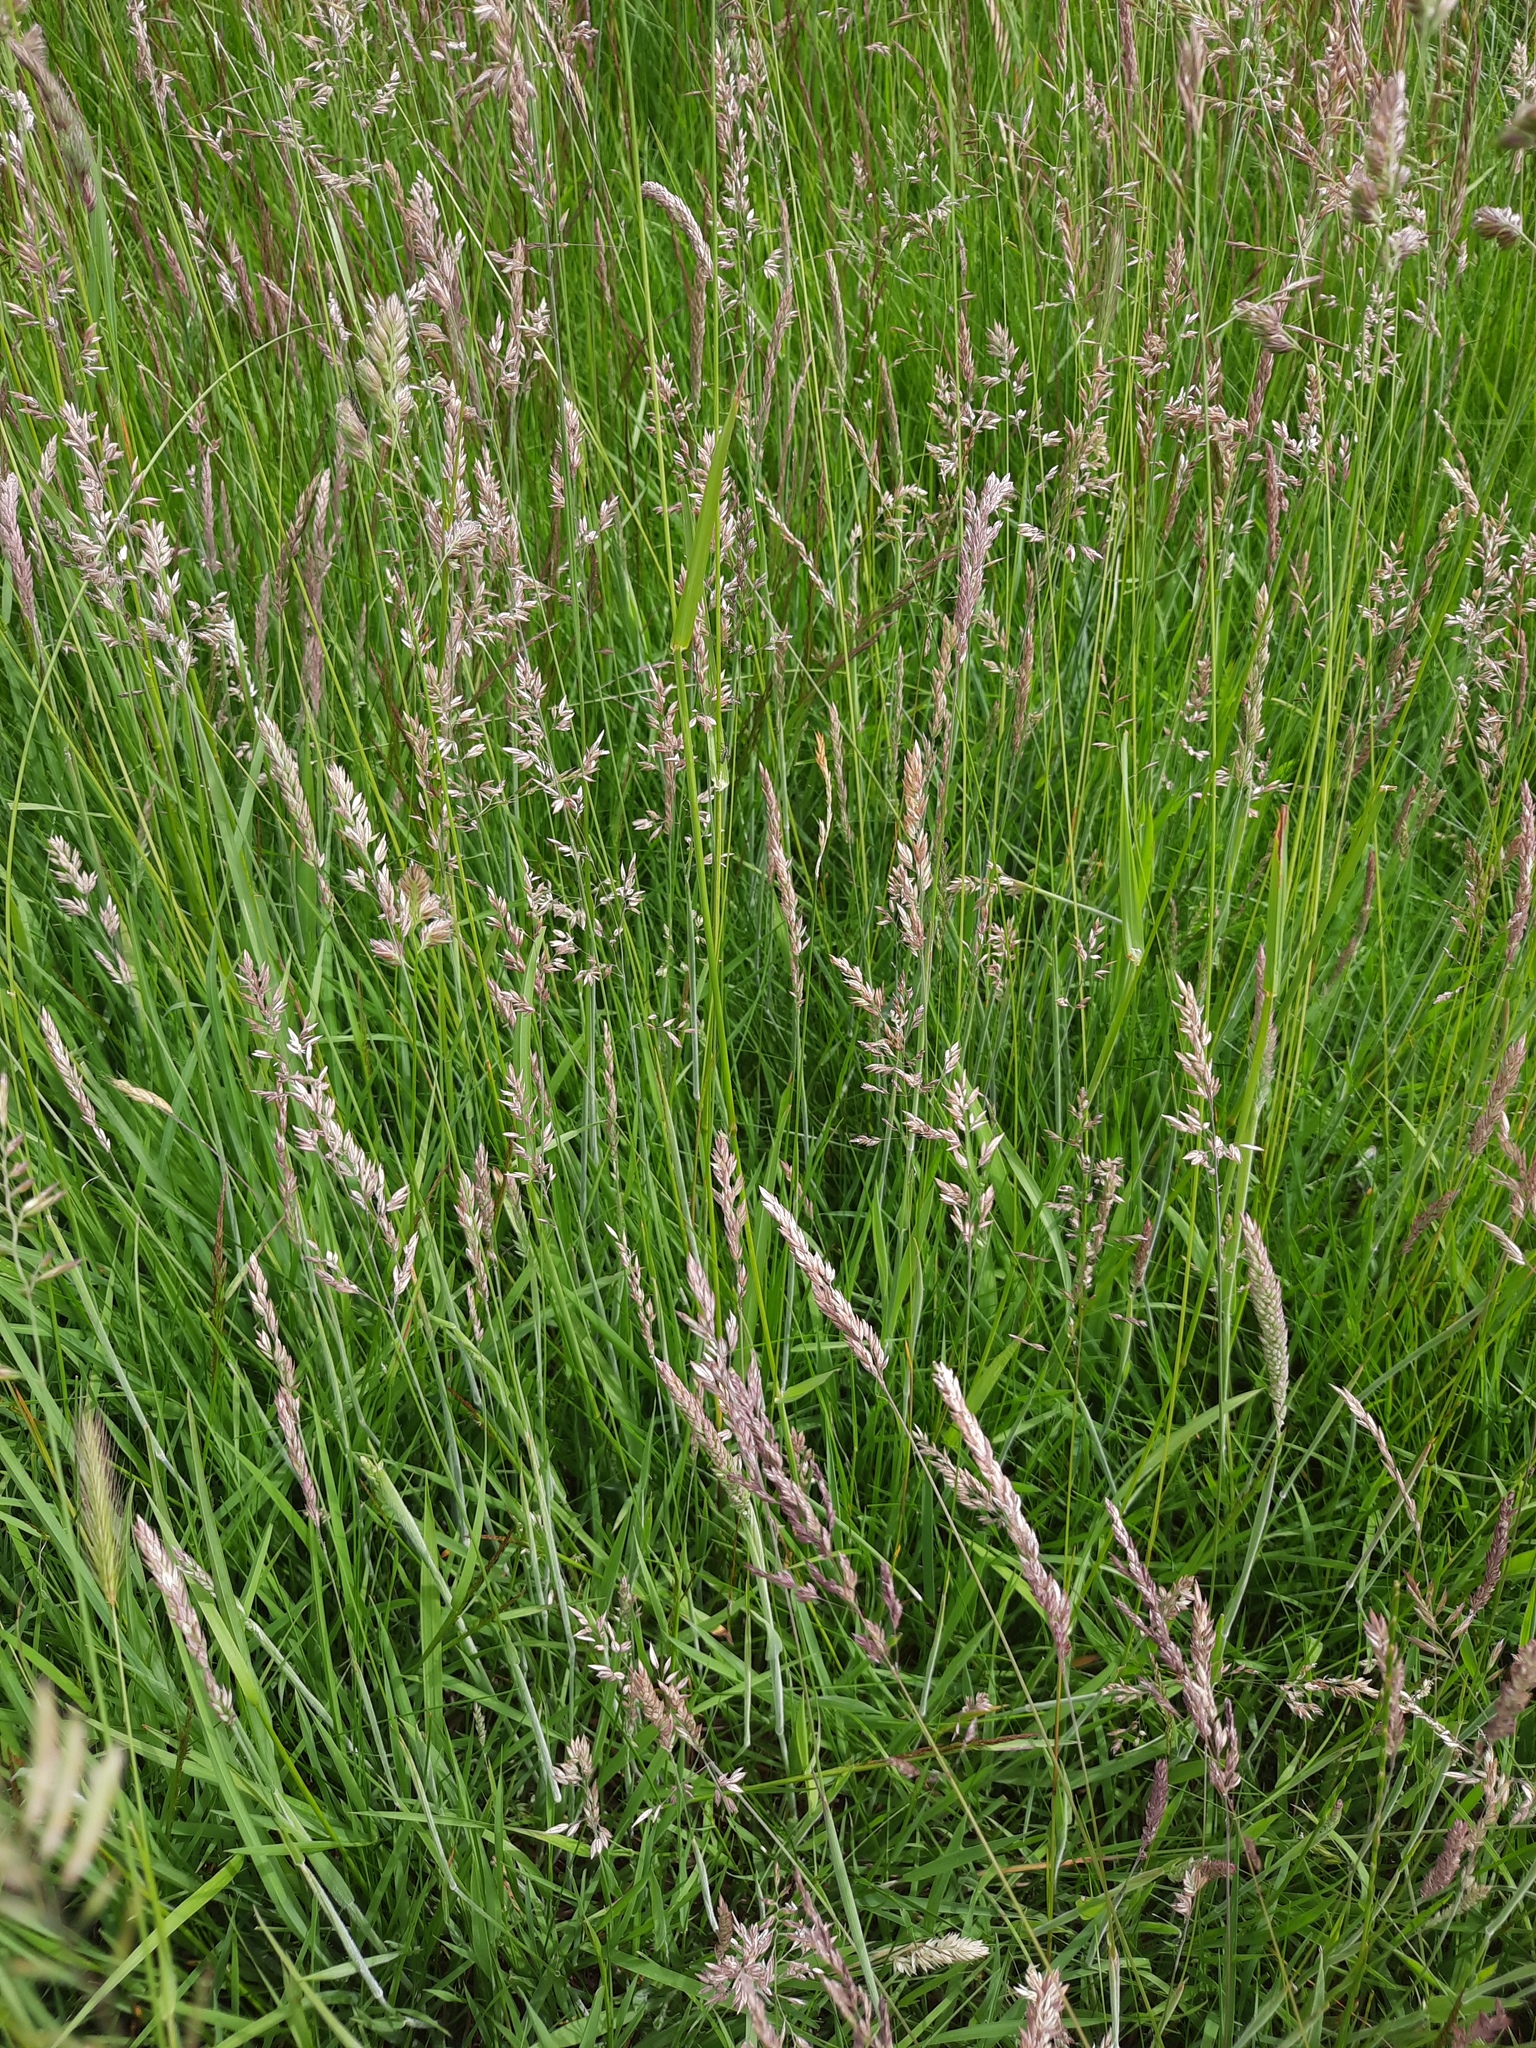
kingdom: Plantae
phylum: Tracheophyta
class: Liliopsida
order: Poales
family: Poaceae
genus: Holcus
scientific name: Holcus lanatus
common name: Yorkshire-fog
